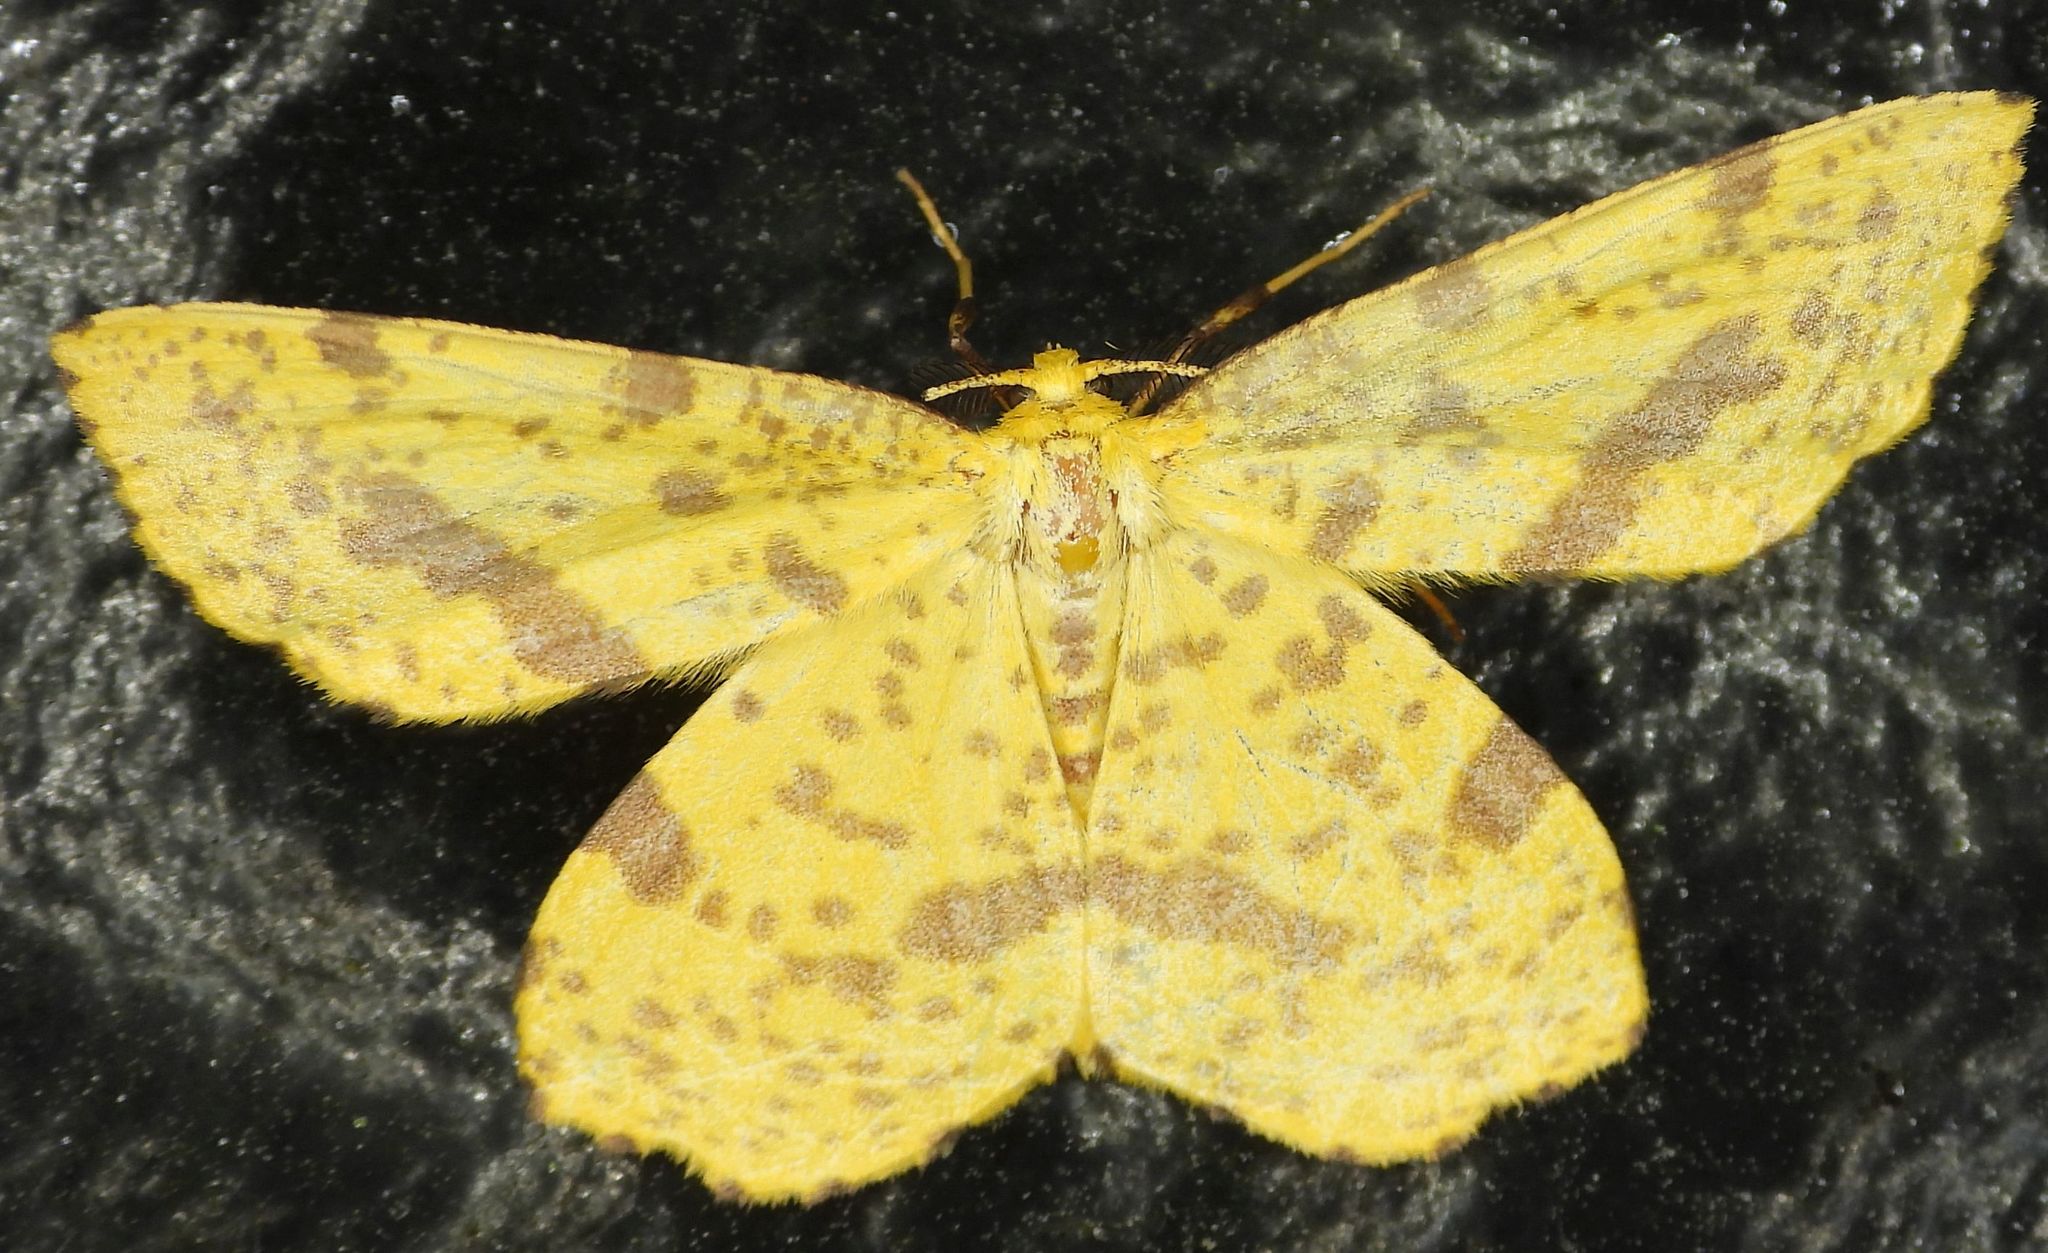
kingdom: Animalia
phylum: Arthropoda
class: Insecta
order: Lepidoptera
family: Geometridae
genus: Xanthotype
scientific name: Xanthotype
